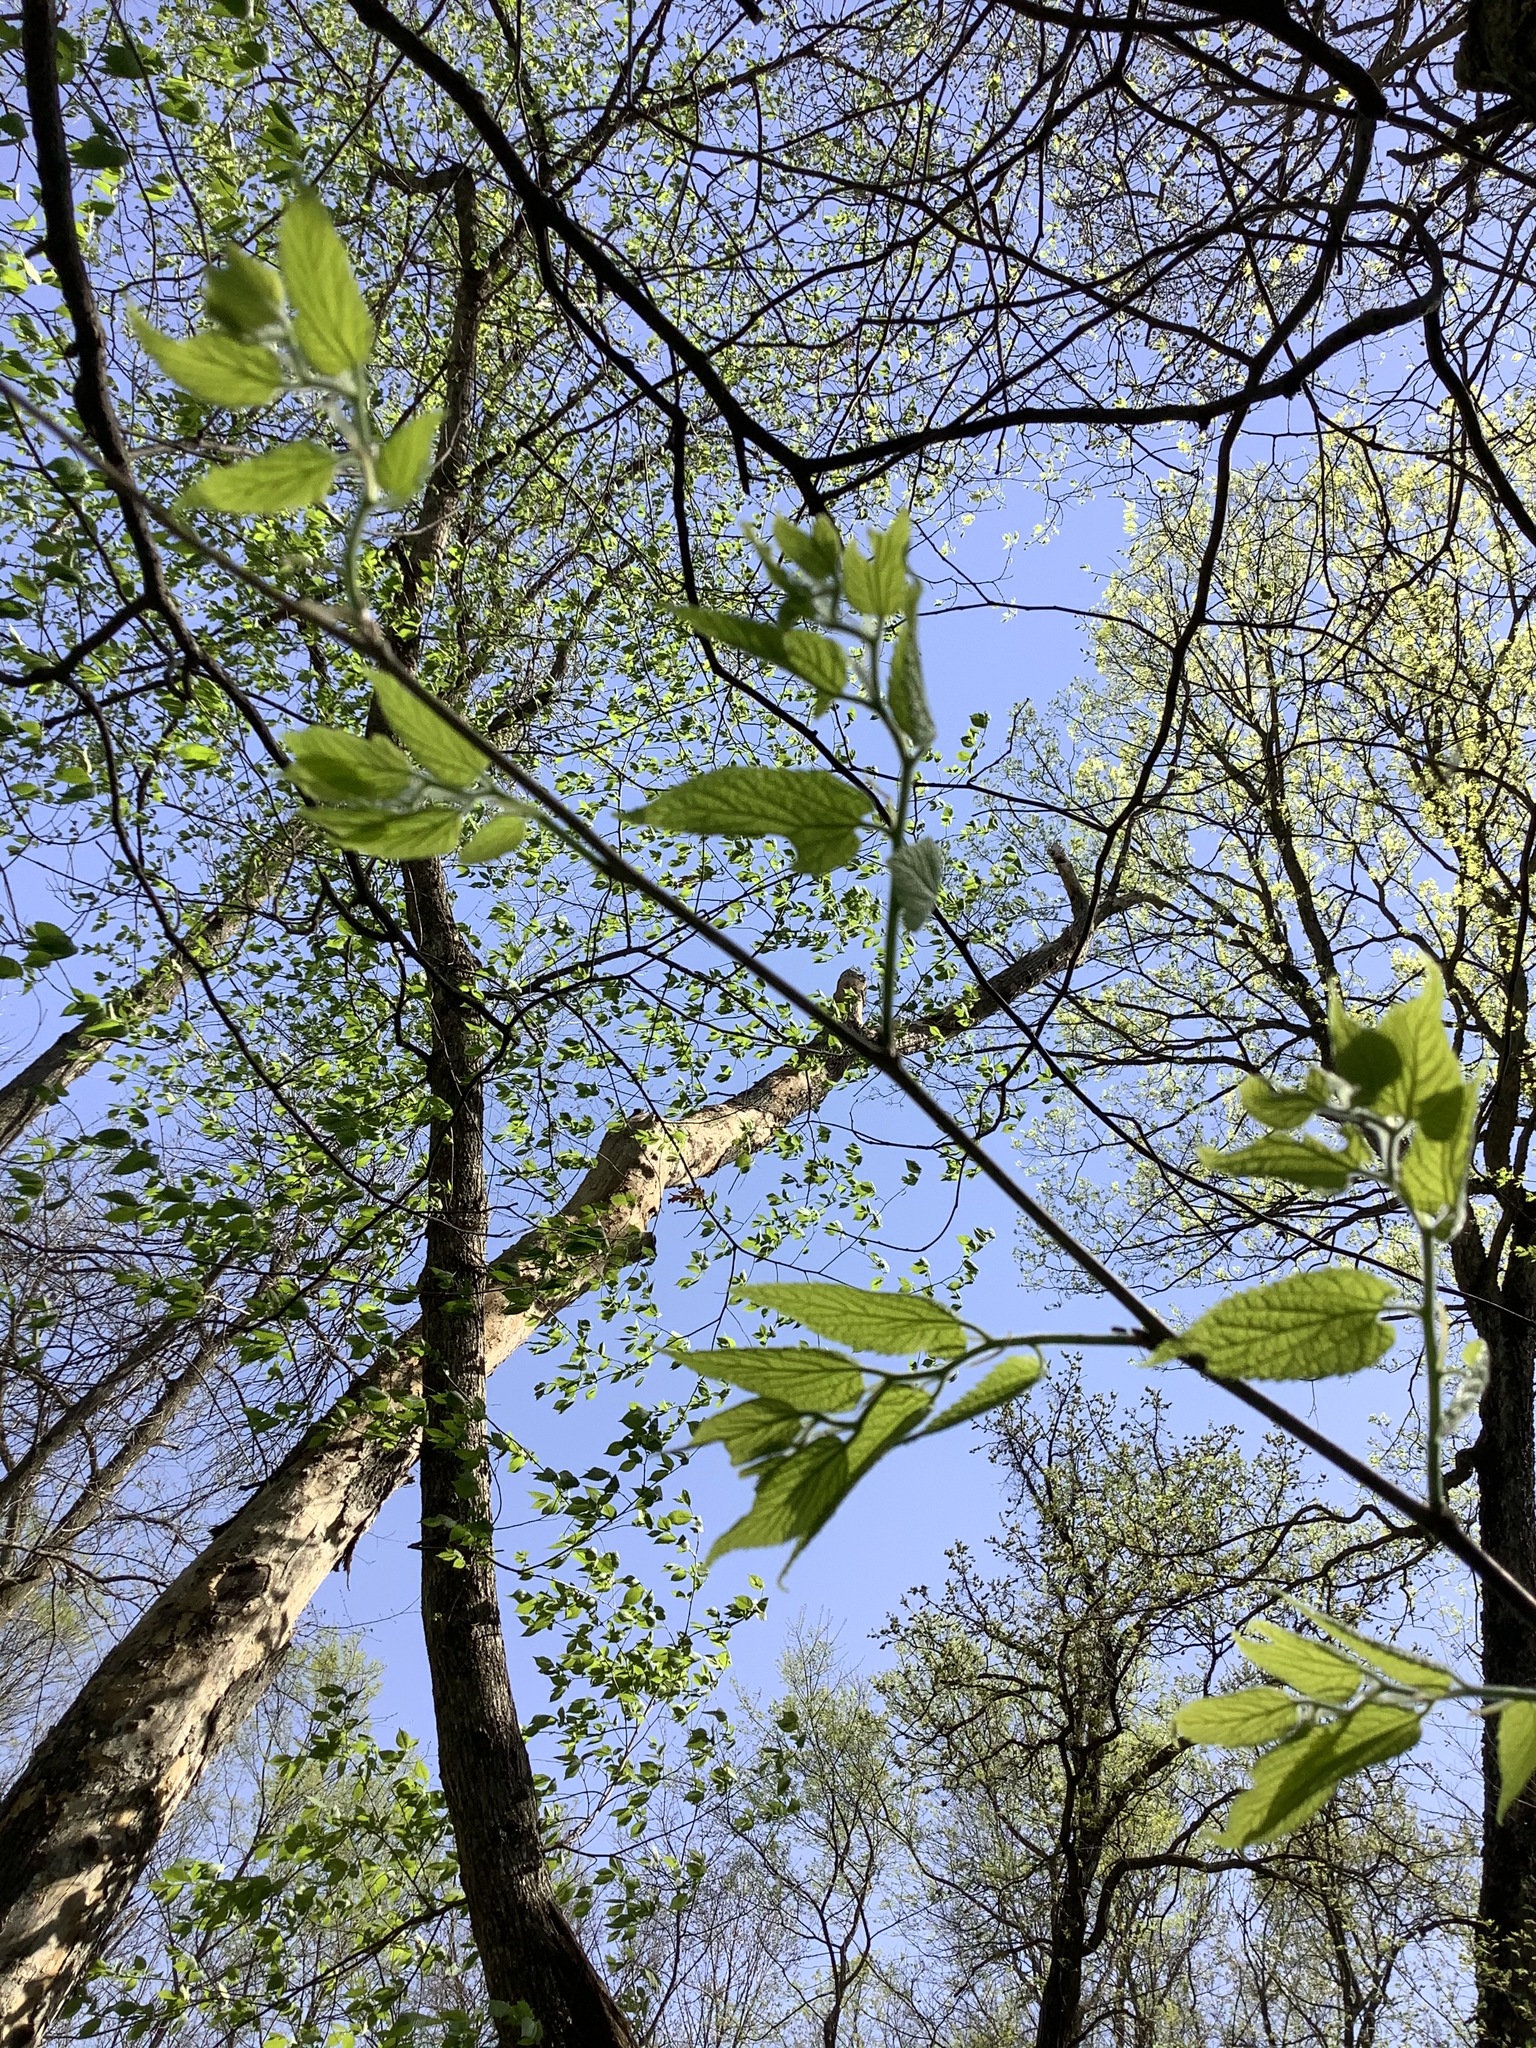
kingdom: Plantae
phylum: Tracheophyta
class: Magnoliopsida
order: Rosales
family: Cannabaceae
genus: Celtis
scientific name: Celtis occidentalis
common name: Common hackberry
